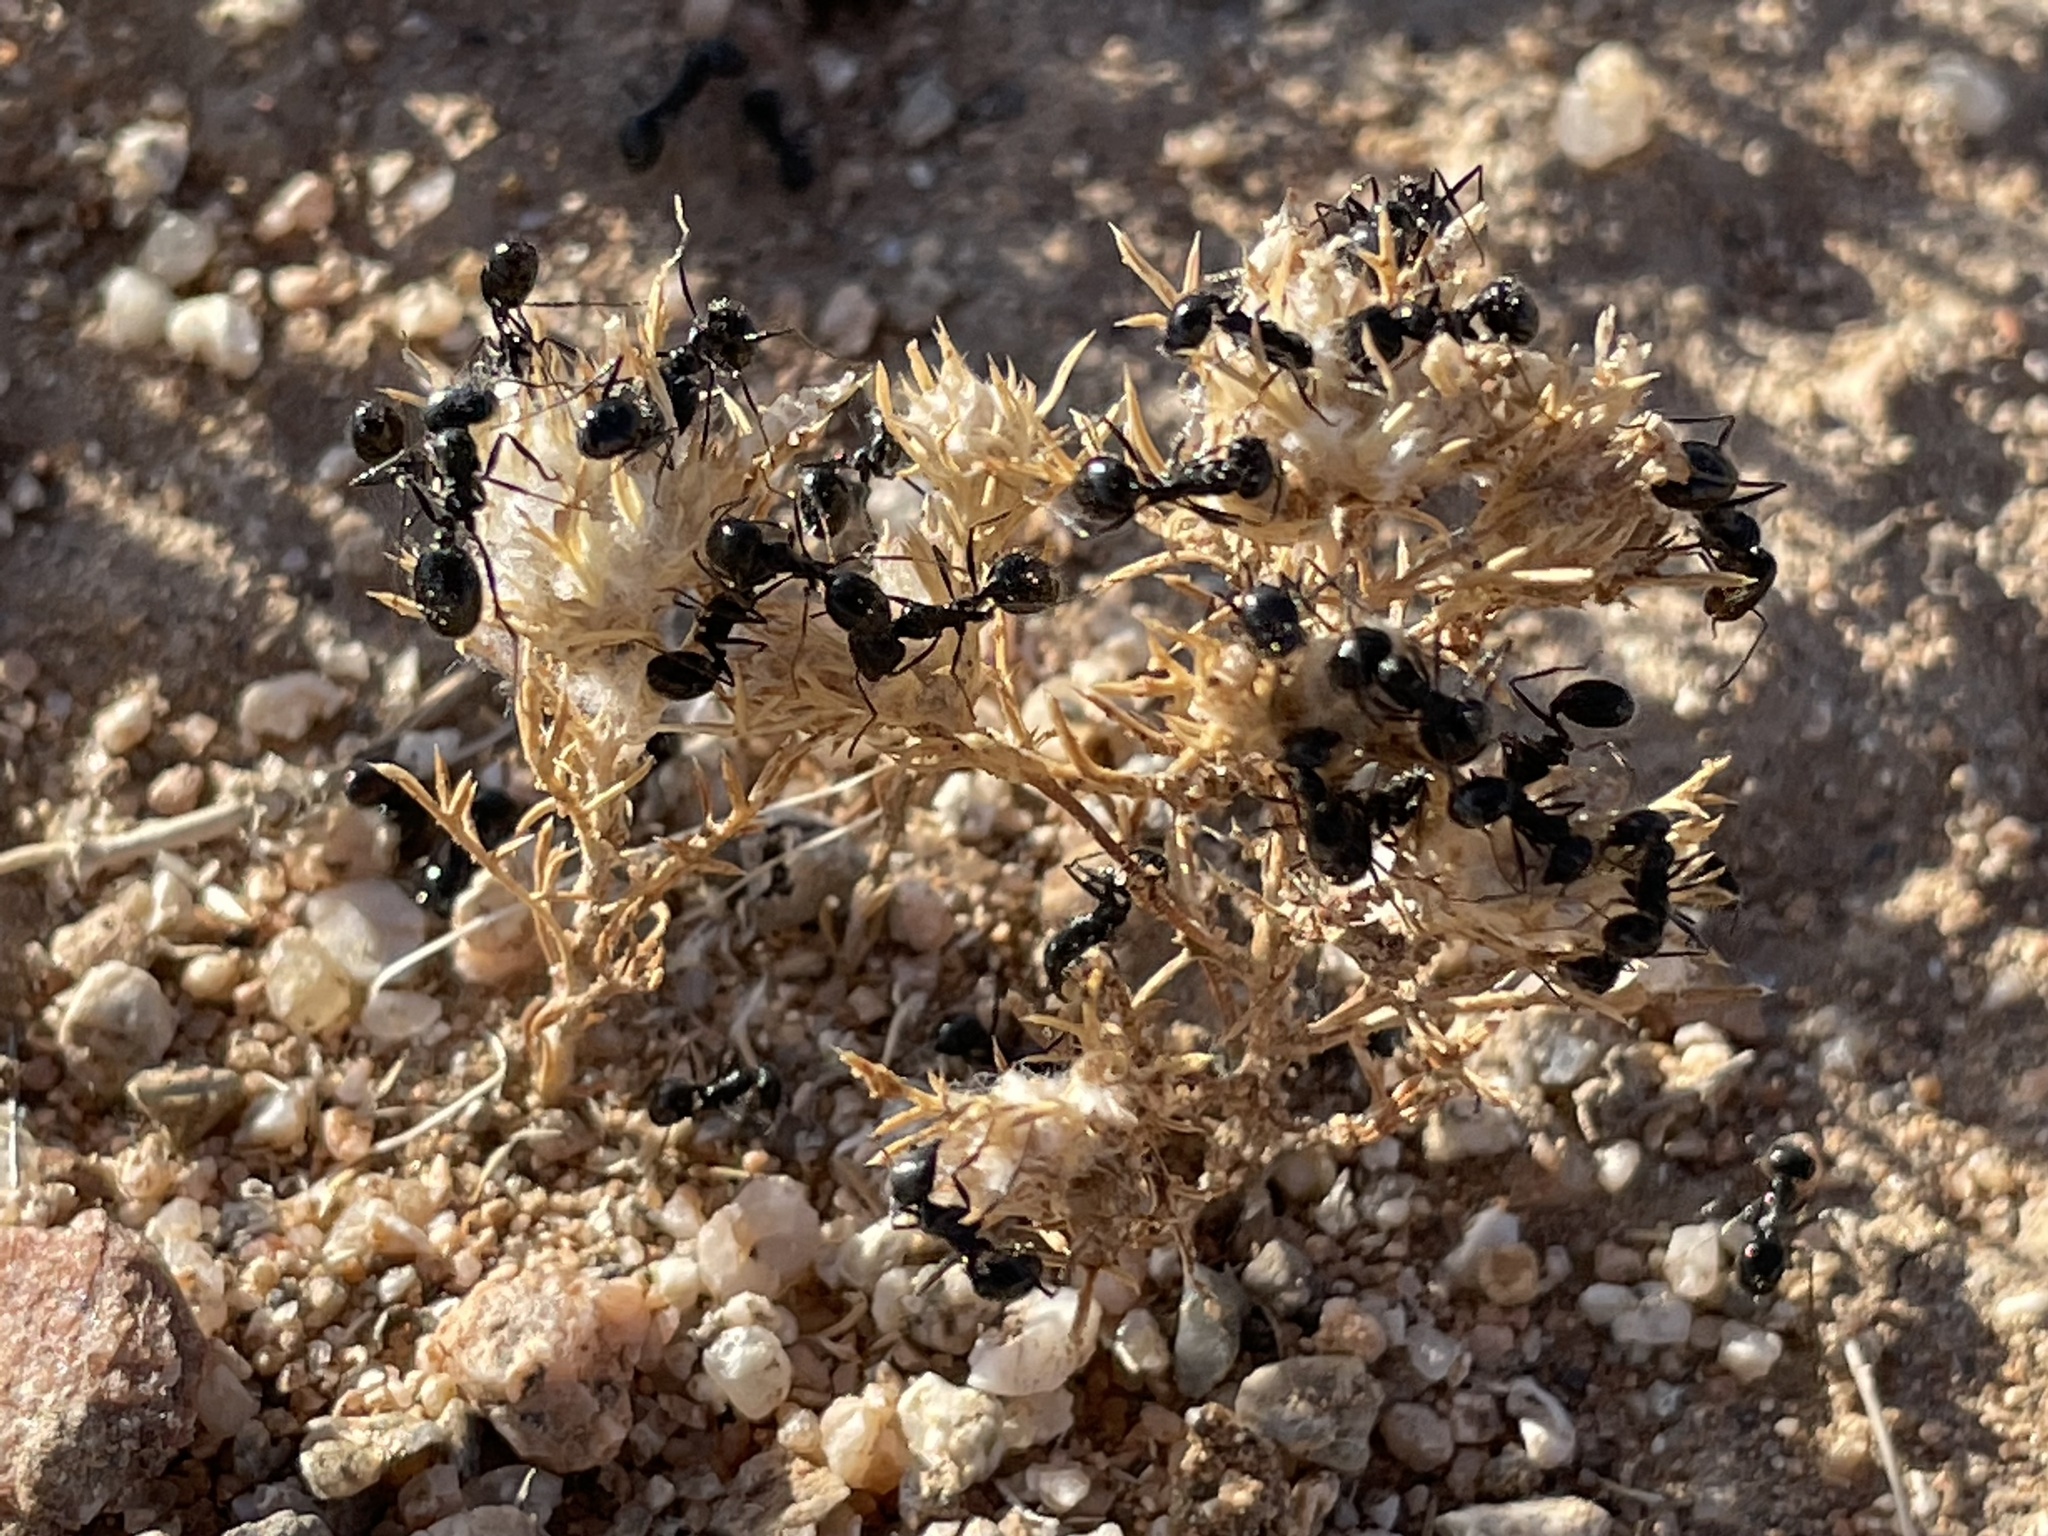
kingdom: Animalia
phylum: Arthropoda
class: Insecta
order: Hymenoptera
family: Formicidae
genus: Messor
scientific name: Messor pergandei
